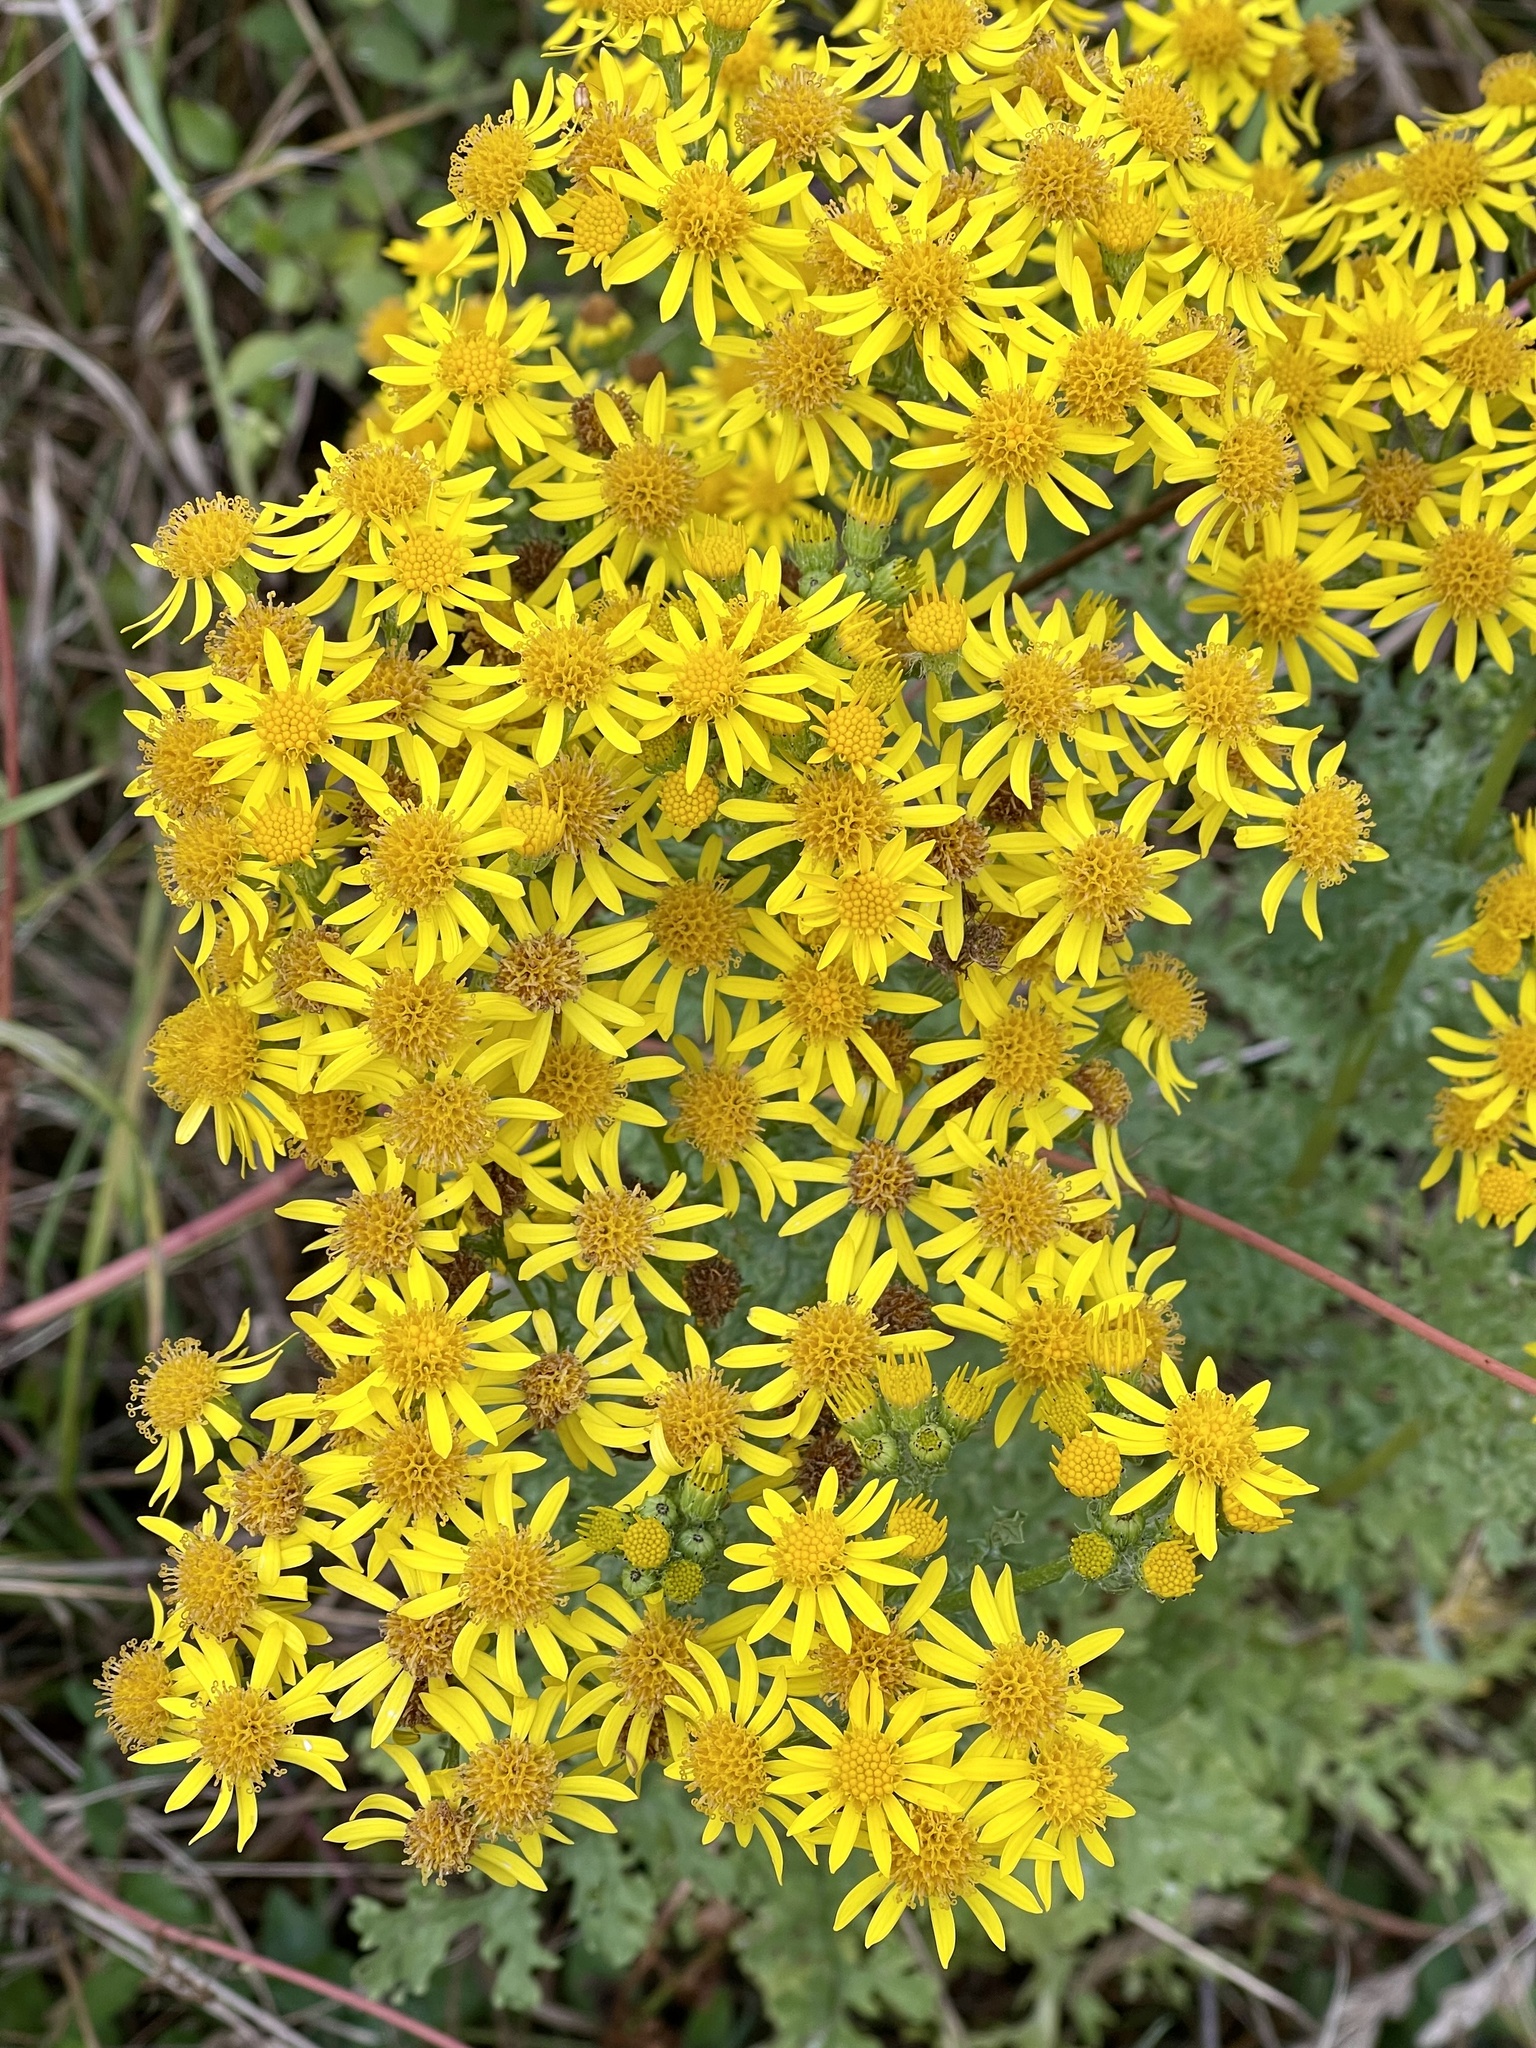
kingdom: Plantae
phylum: Tracheophyta
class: Magnoliopsida
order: Asterales
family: Asteraceae
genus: Jacobaea
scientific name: Jacobaea vulgaris
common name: Stinking willie
